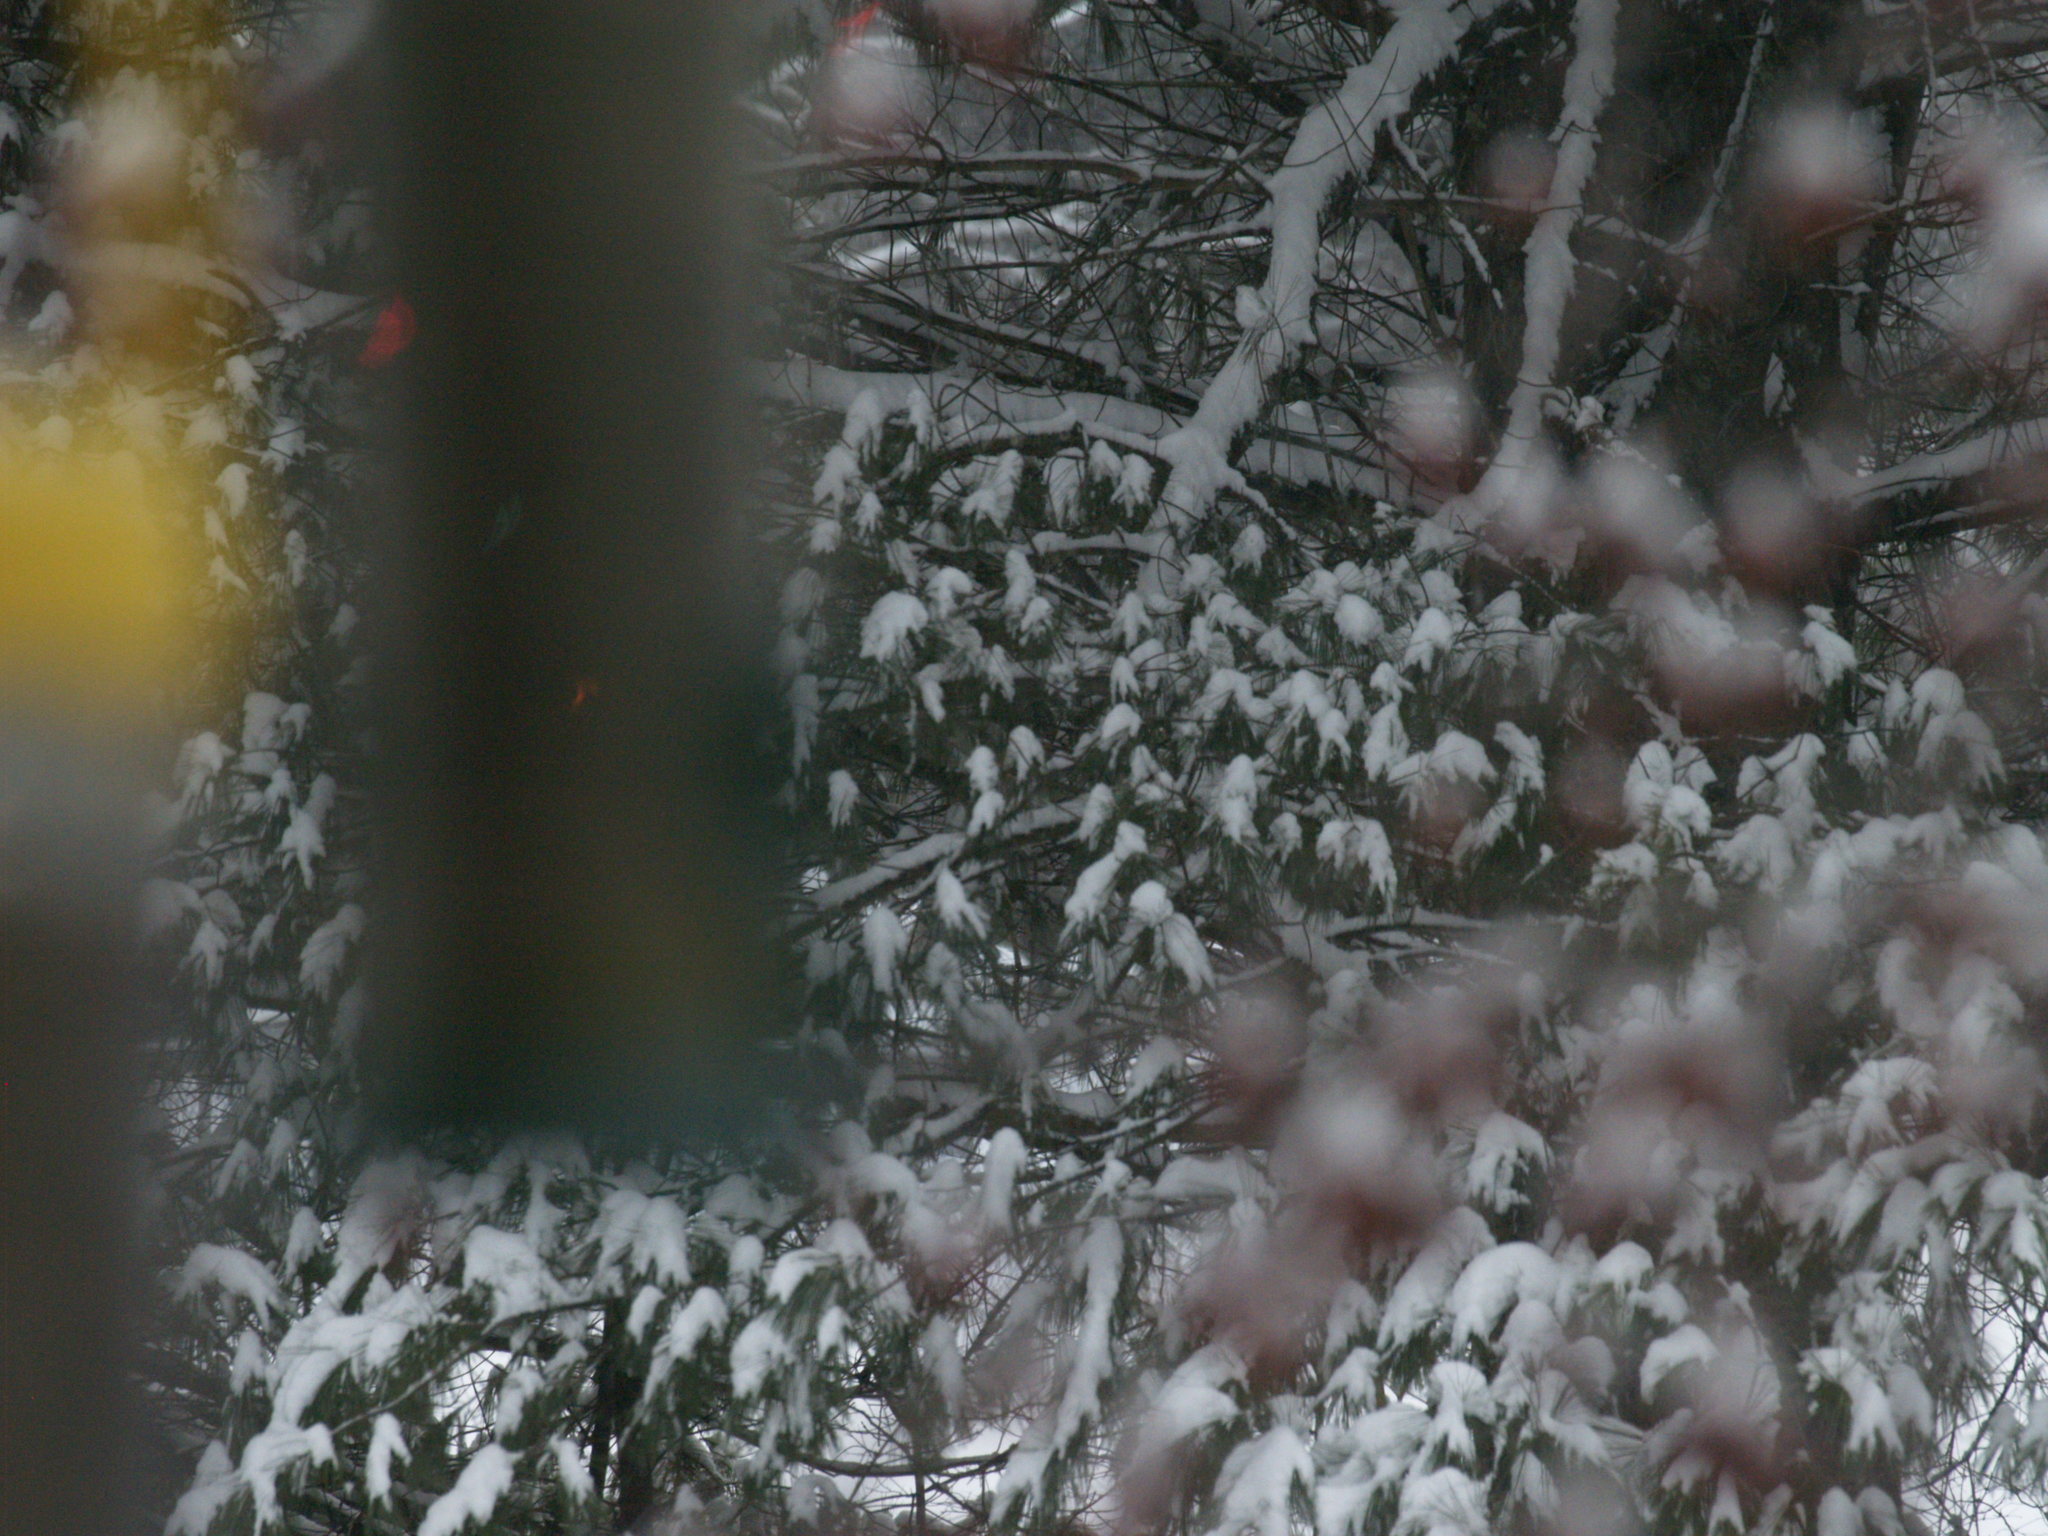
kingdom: Plantae
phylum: Tracheophyta
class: Pinopsida
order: Pinales
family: Pinaceae
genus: Pinus
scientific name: Pinus strobus
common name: Weymouth pine
